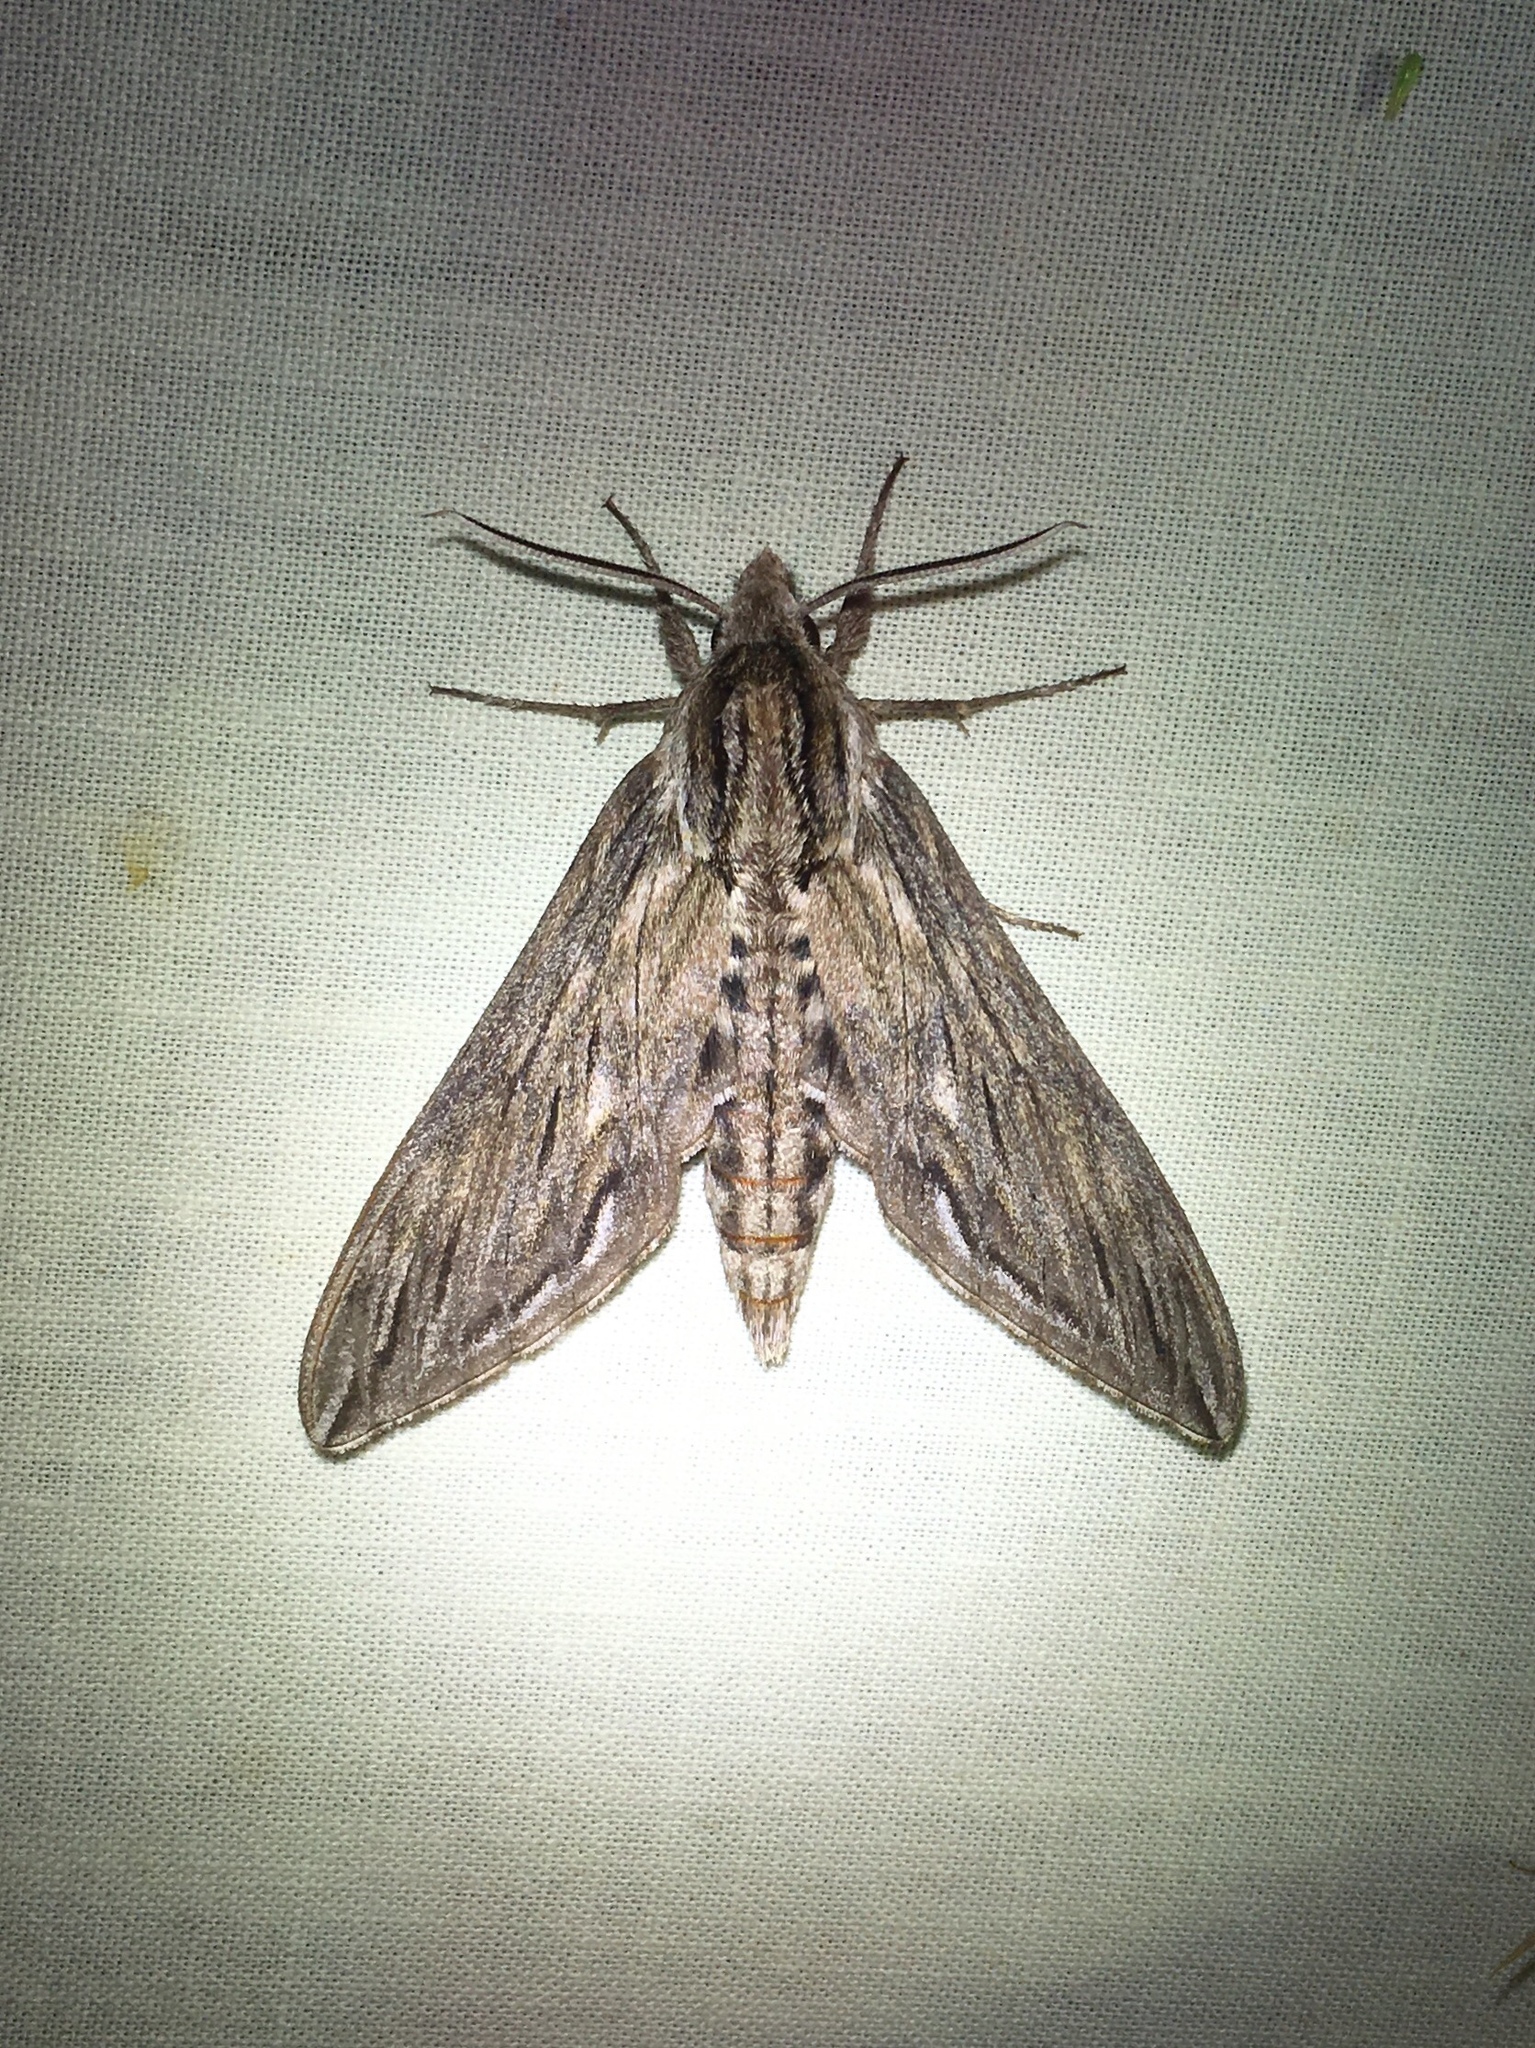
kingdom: Animalia
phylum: Arthropoda
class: Insecta
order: Lepidoptera
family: Sphingidae
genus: Sphinx
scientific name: Sphinx canadensis
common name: Canadian sphinx
